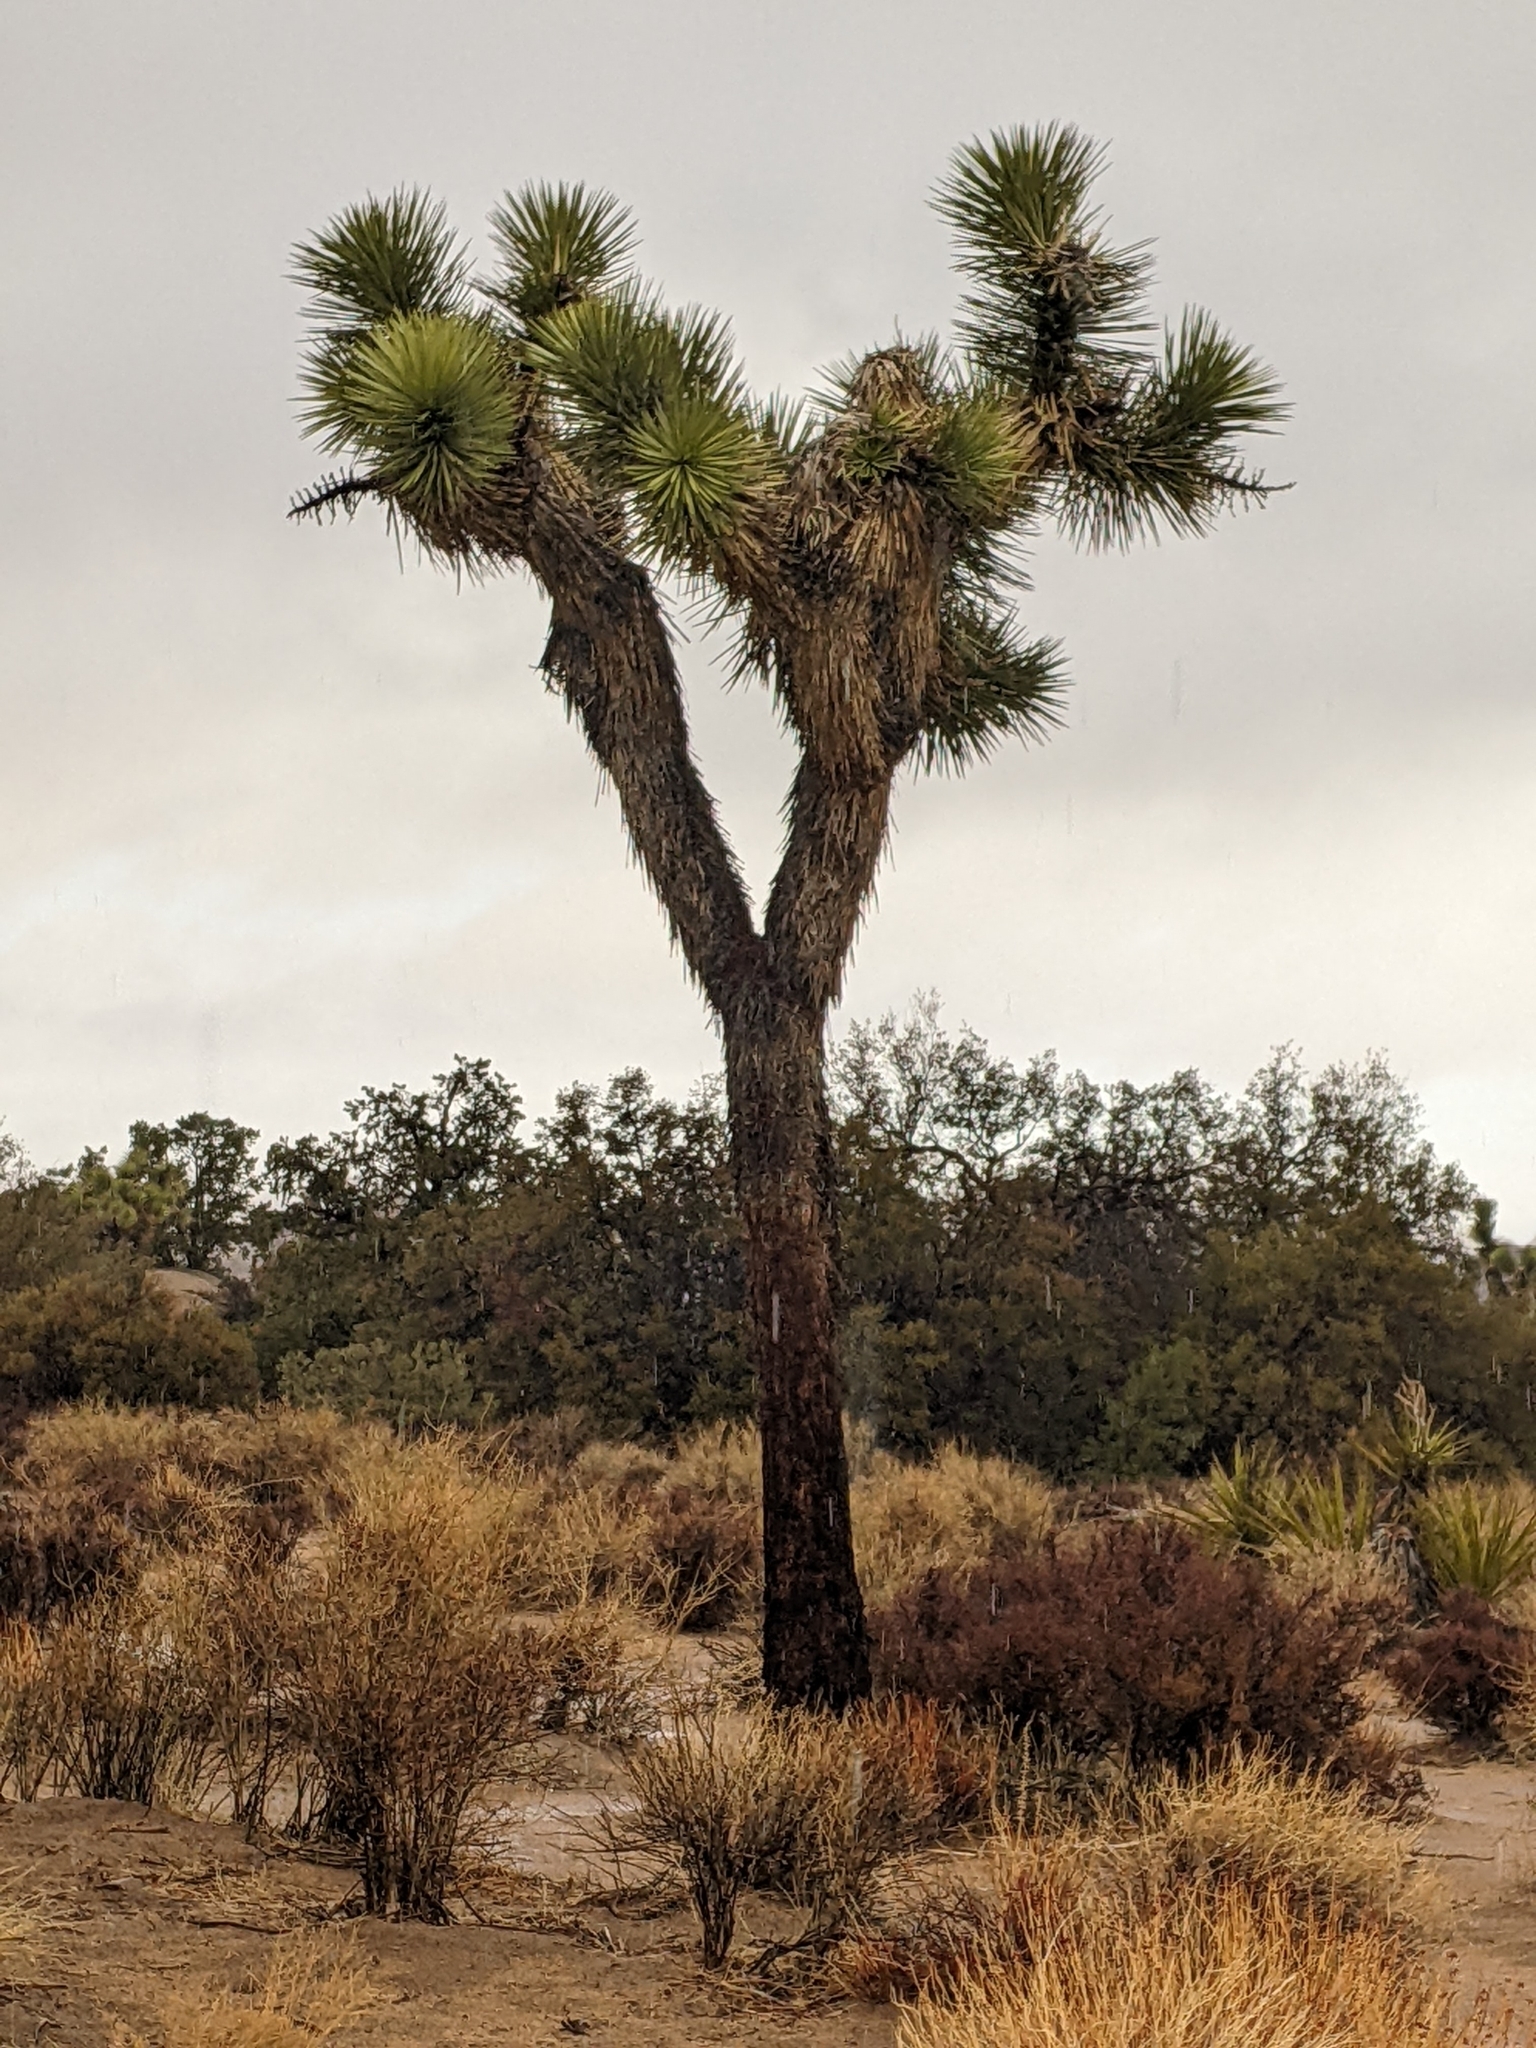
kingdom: Plantae
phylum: Tracheophyta
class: Liliopsida
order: Asparagales
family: Asparagaceae
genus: Yucca
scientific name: Yucca brevifolia
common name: Joshua tree
